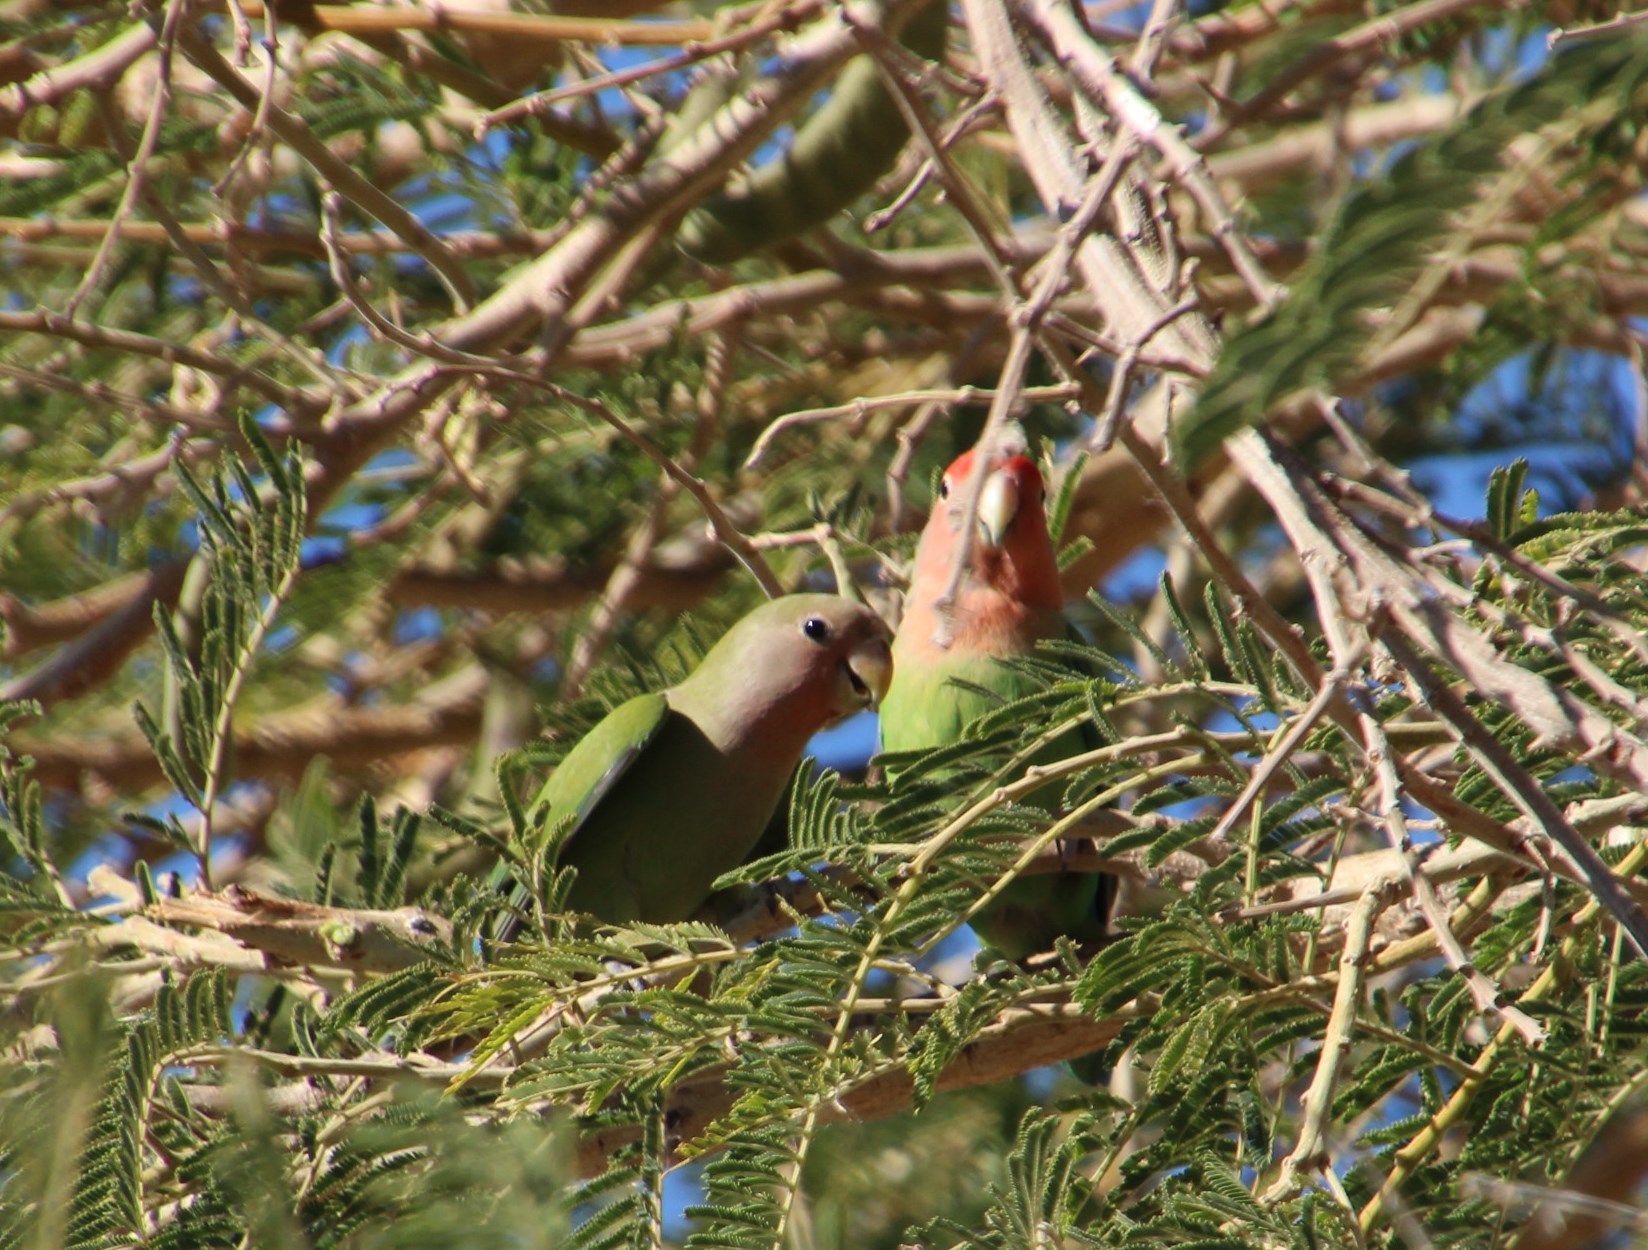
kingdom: Animalia
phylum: Chordata
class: Aves
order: Psittaciformes
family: Psittacidae
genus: Agapornis
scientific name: Agapornis roseicollis
